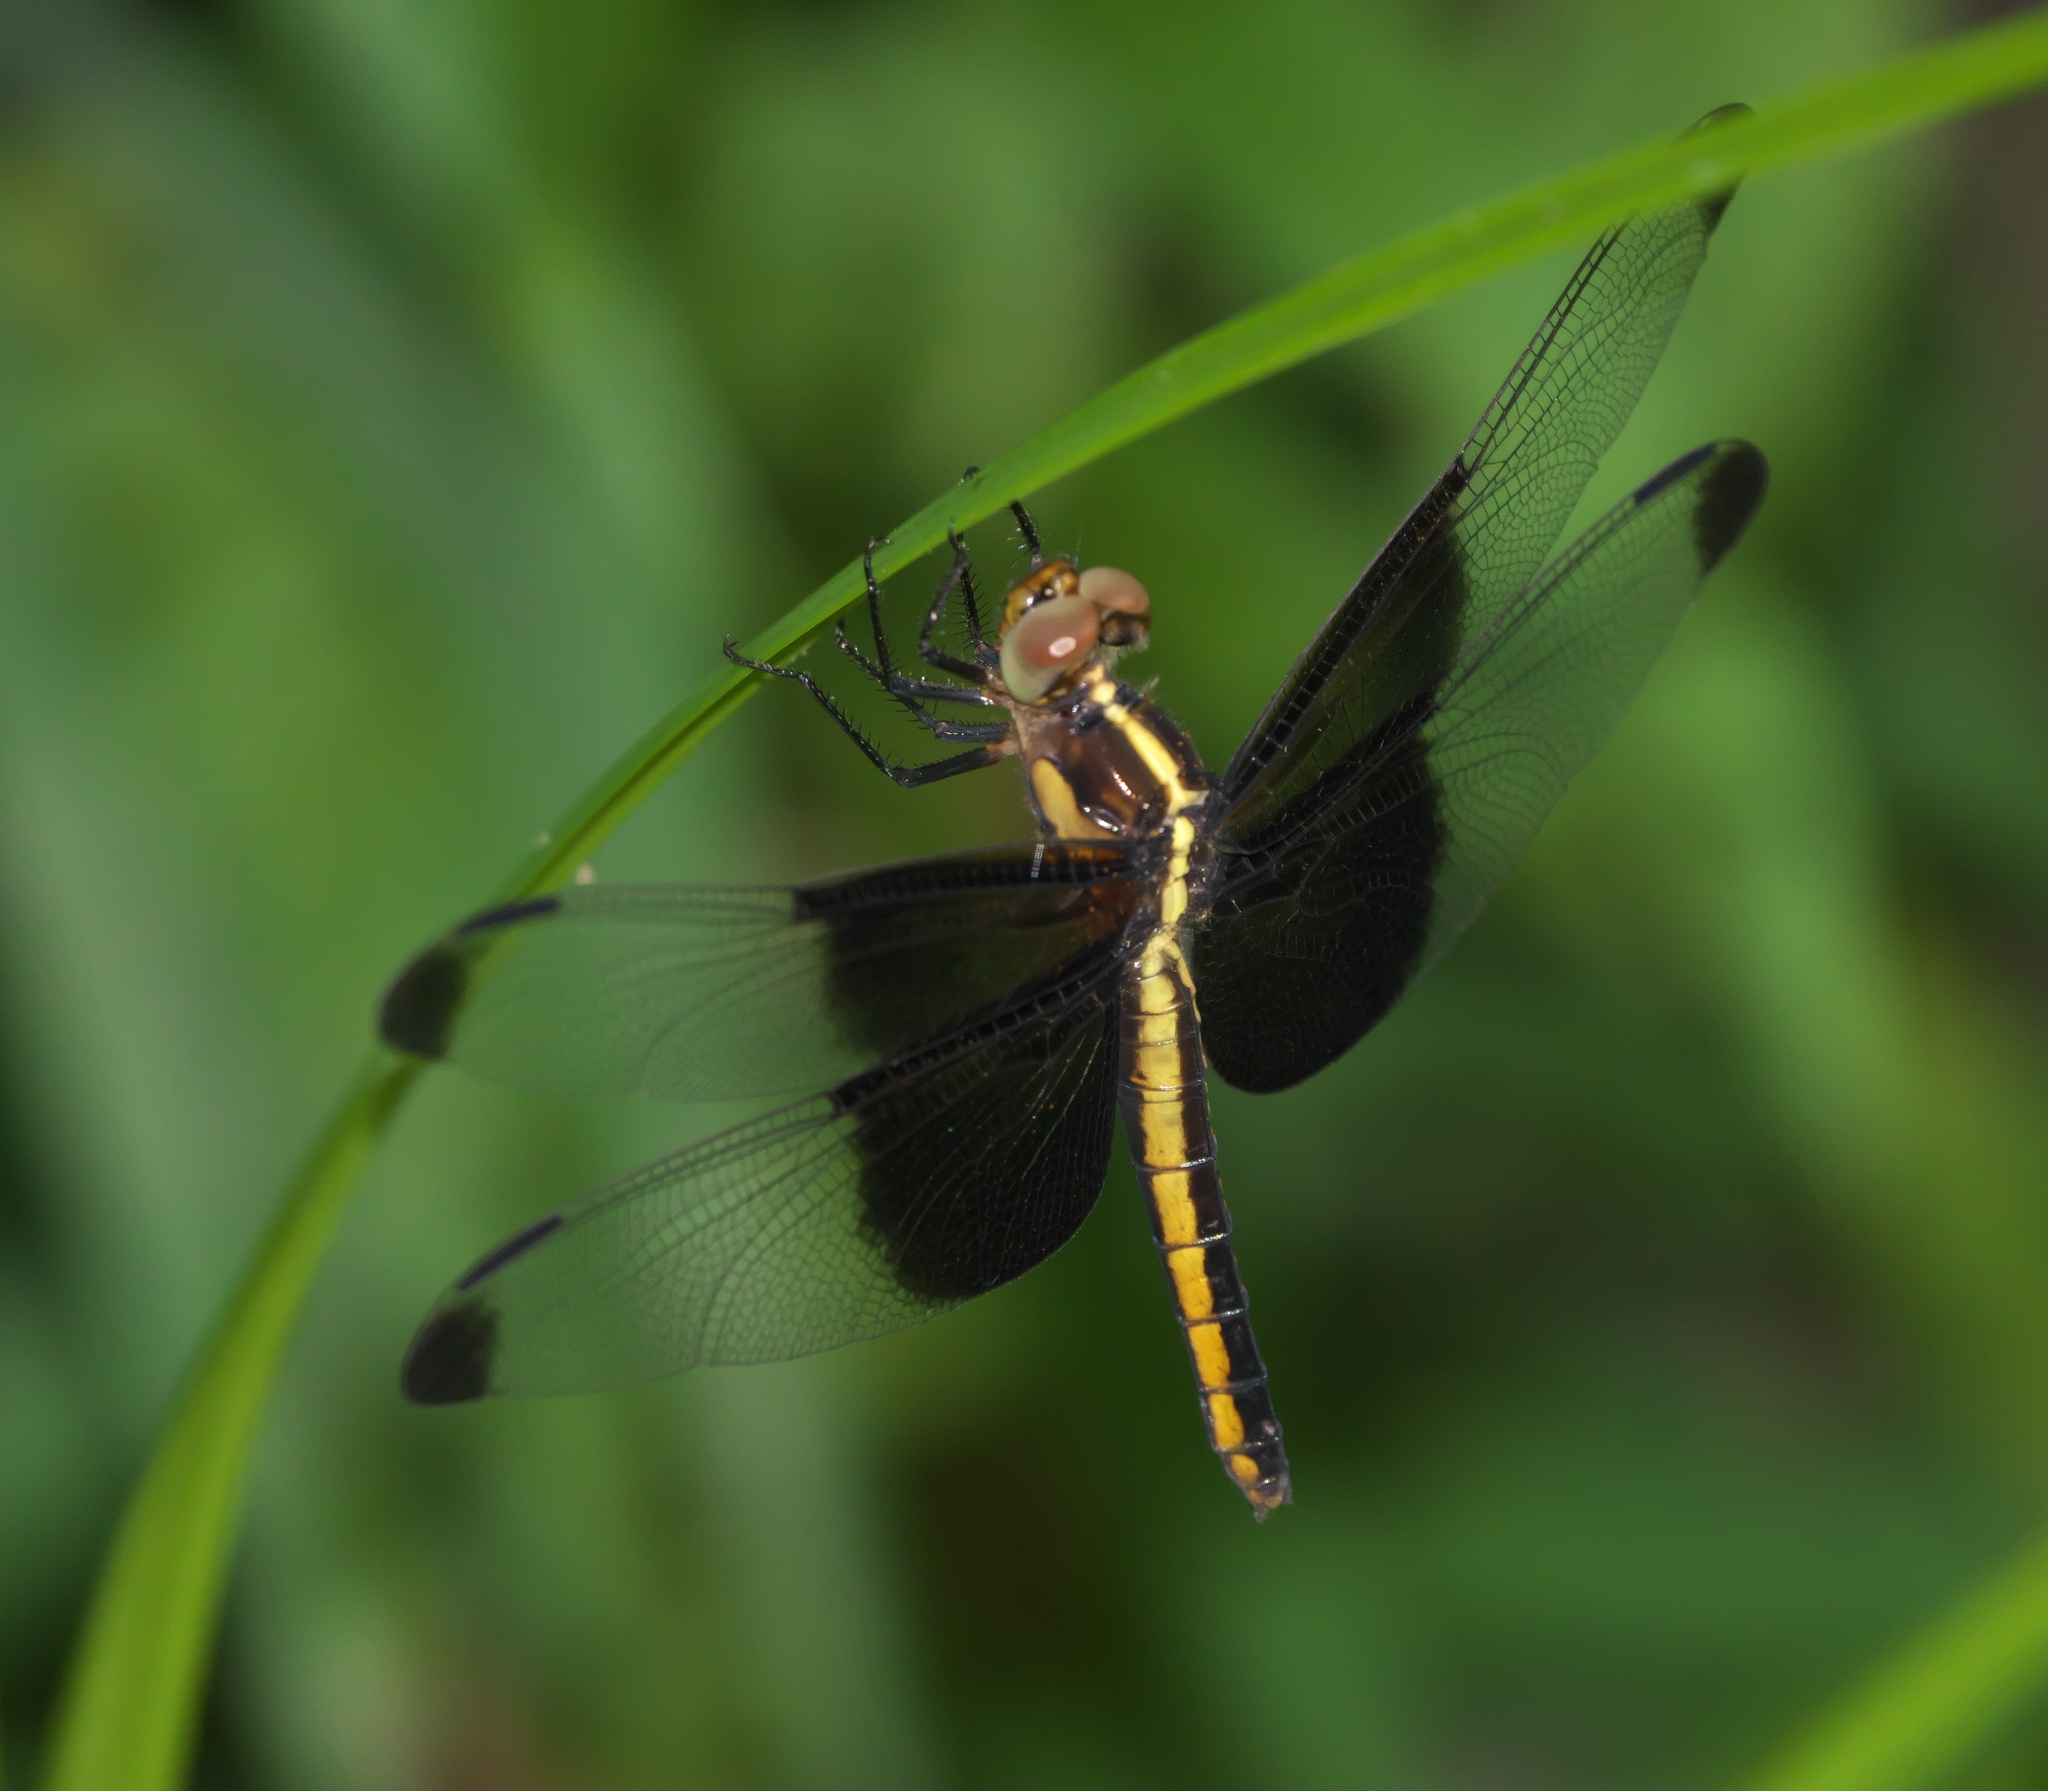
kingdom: Animalia
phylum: Arthropoda
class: Insecta
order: Odonata
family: Libellulidae
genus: Libellula
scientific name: Libellula luctuosa
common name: Widow skimmer
